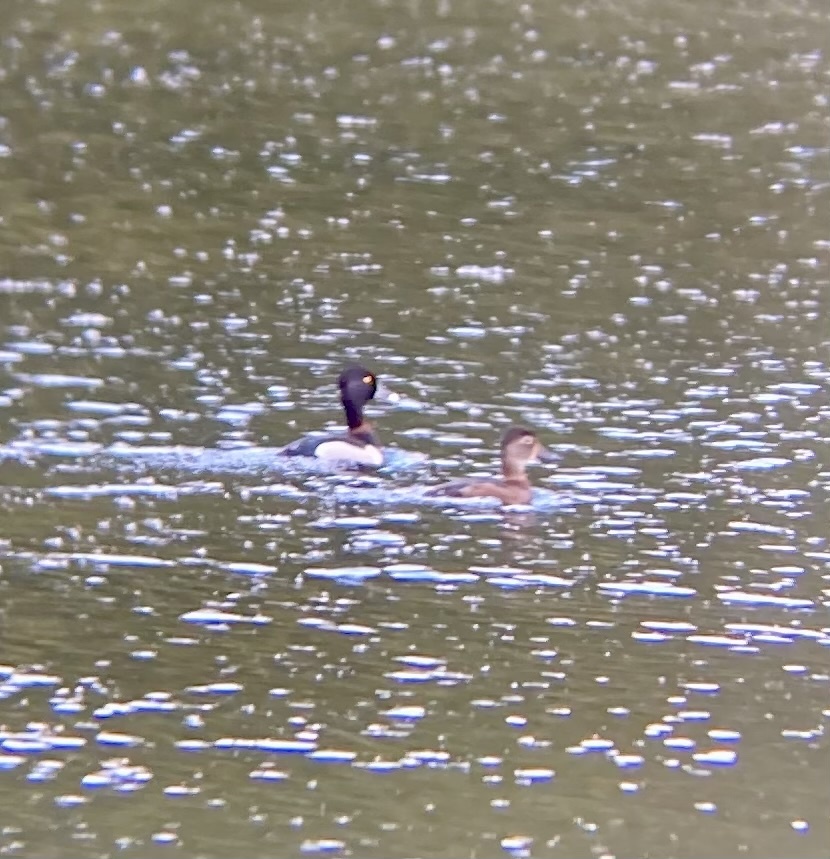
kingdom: Animalia
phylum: Chordata
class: Aves
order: Anseriformes
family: Anatidae
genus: Aythya
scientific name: Aythya collaris
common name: Ring-necked duck
